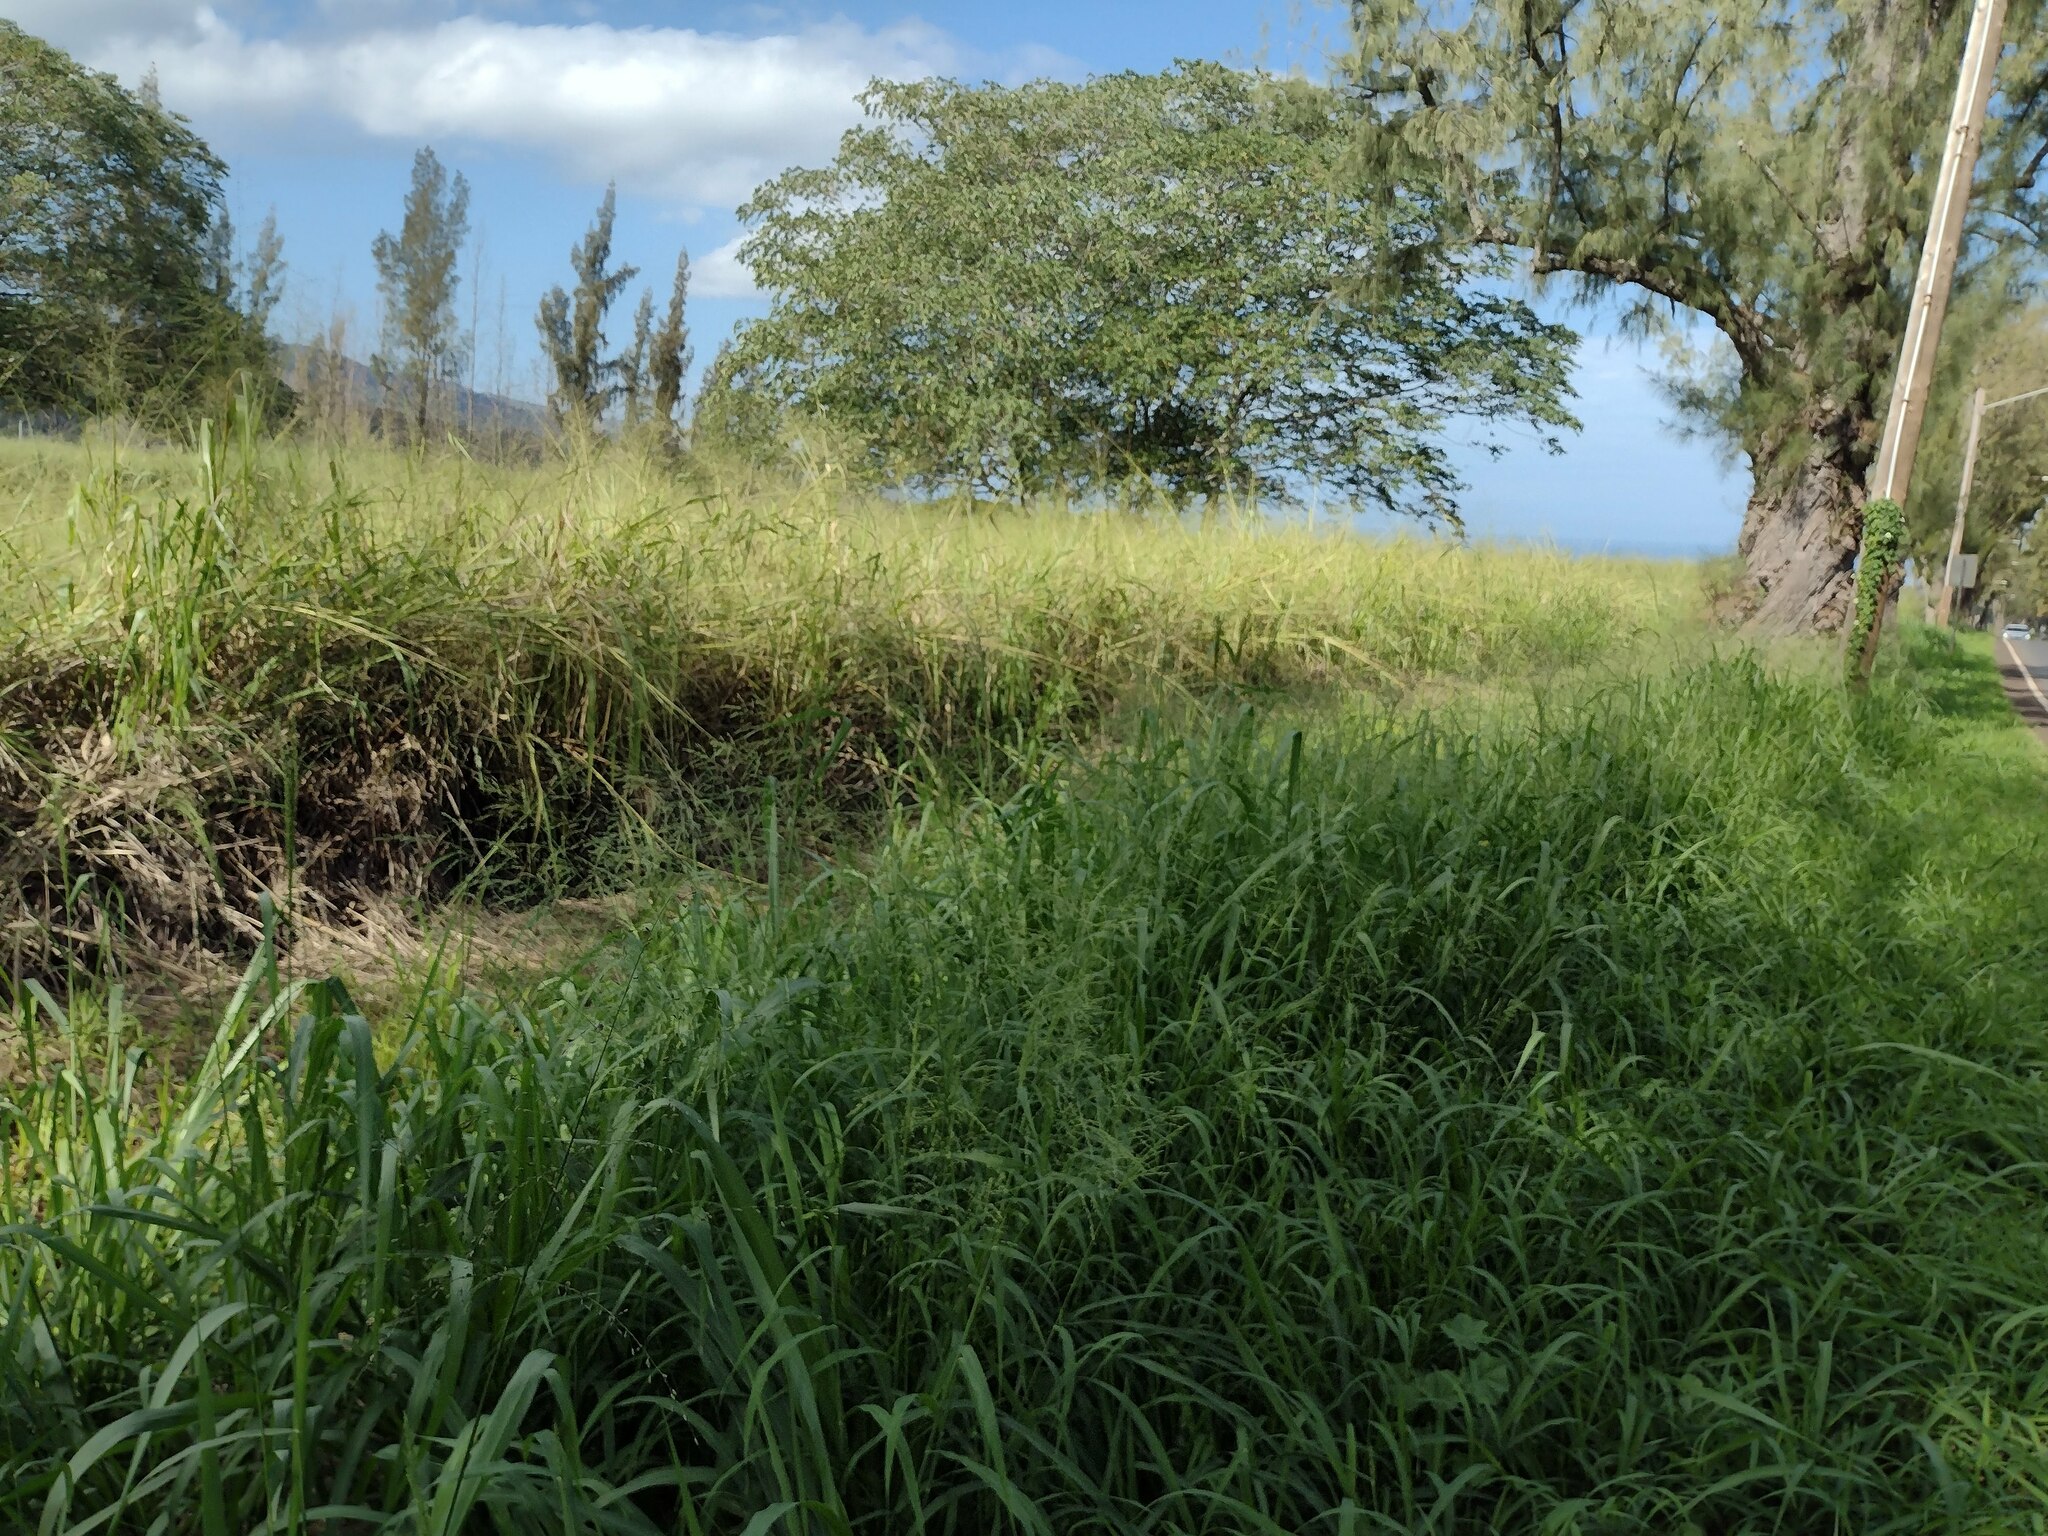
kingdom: Plantae
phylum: Tracheophyta
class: Liliopsida
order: Poales
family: Poaceae
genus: Megathyrsus
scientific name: Megathyrsus maximus
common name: Guineagrass
